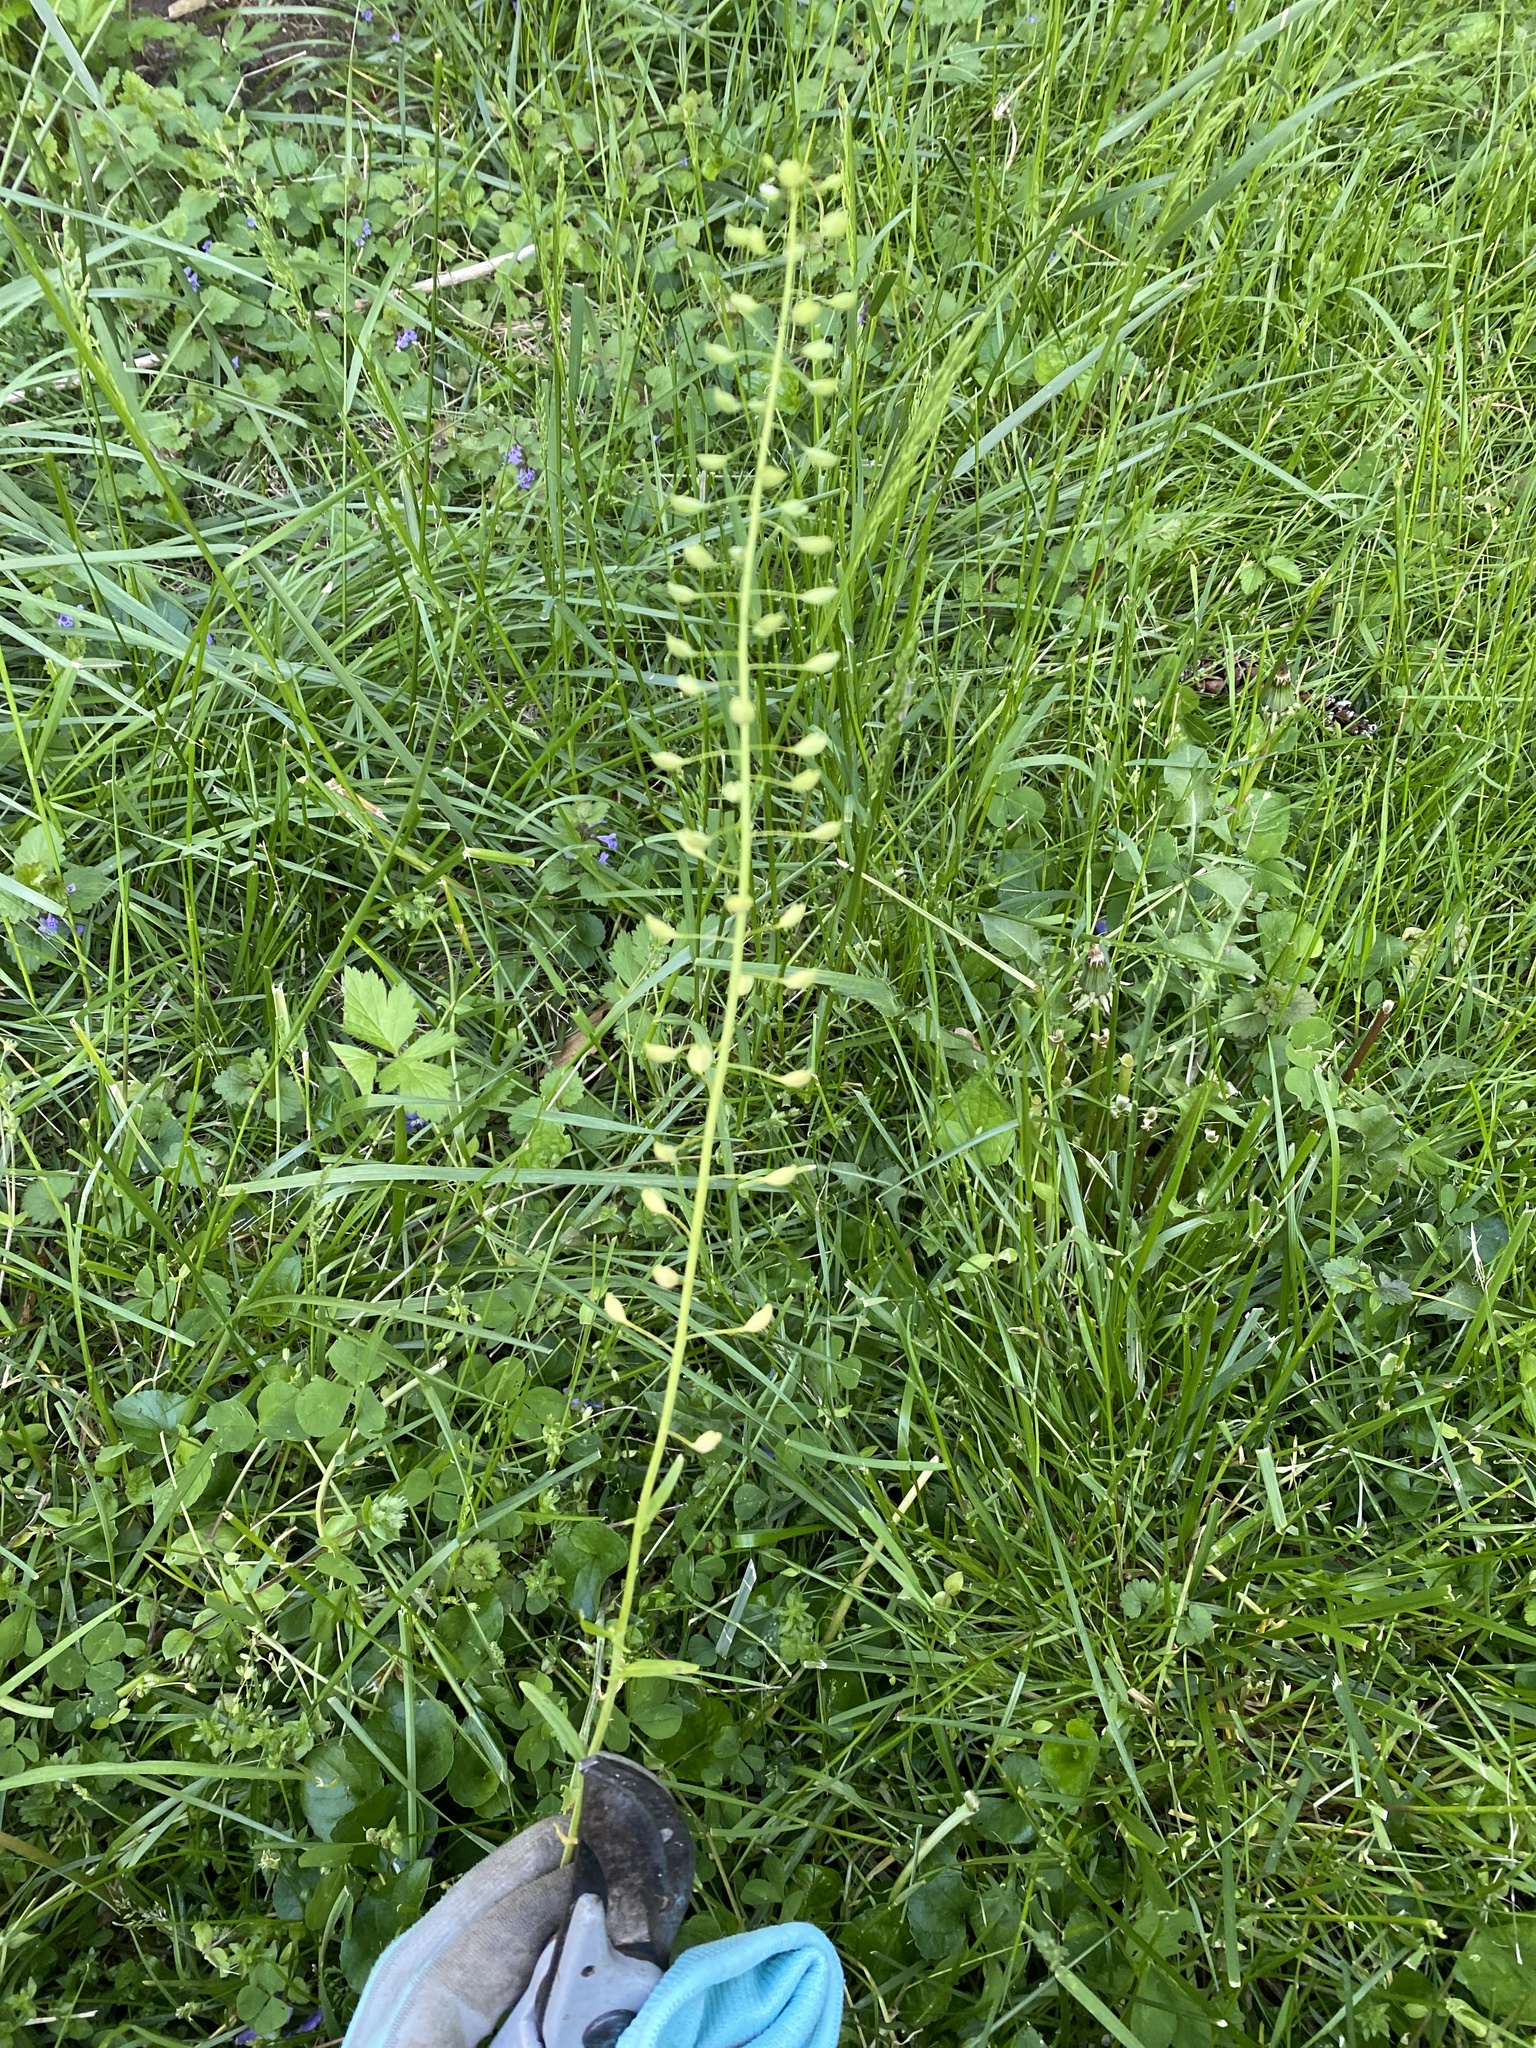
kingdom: Plantae
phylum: Tracheophyta
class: Magnoliopsida
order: Brassicales
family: Brassicaceae
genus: Mummenhoffia
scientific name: Mummenhoffia alliacea
